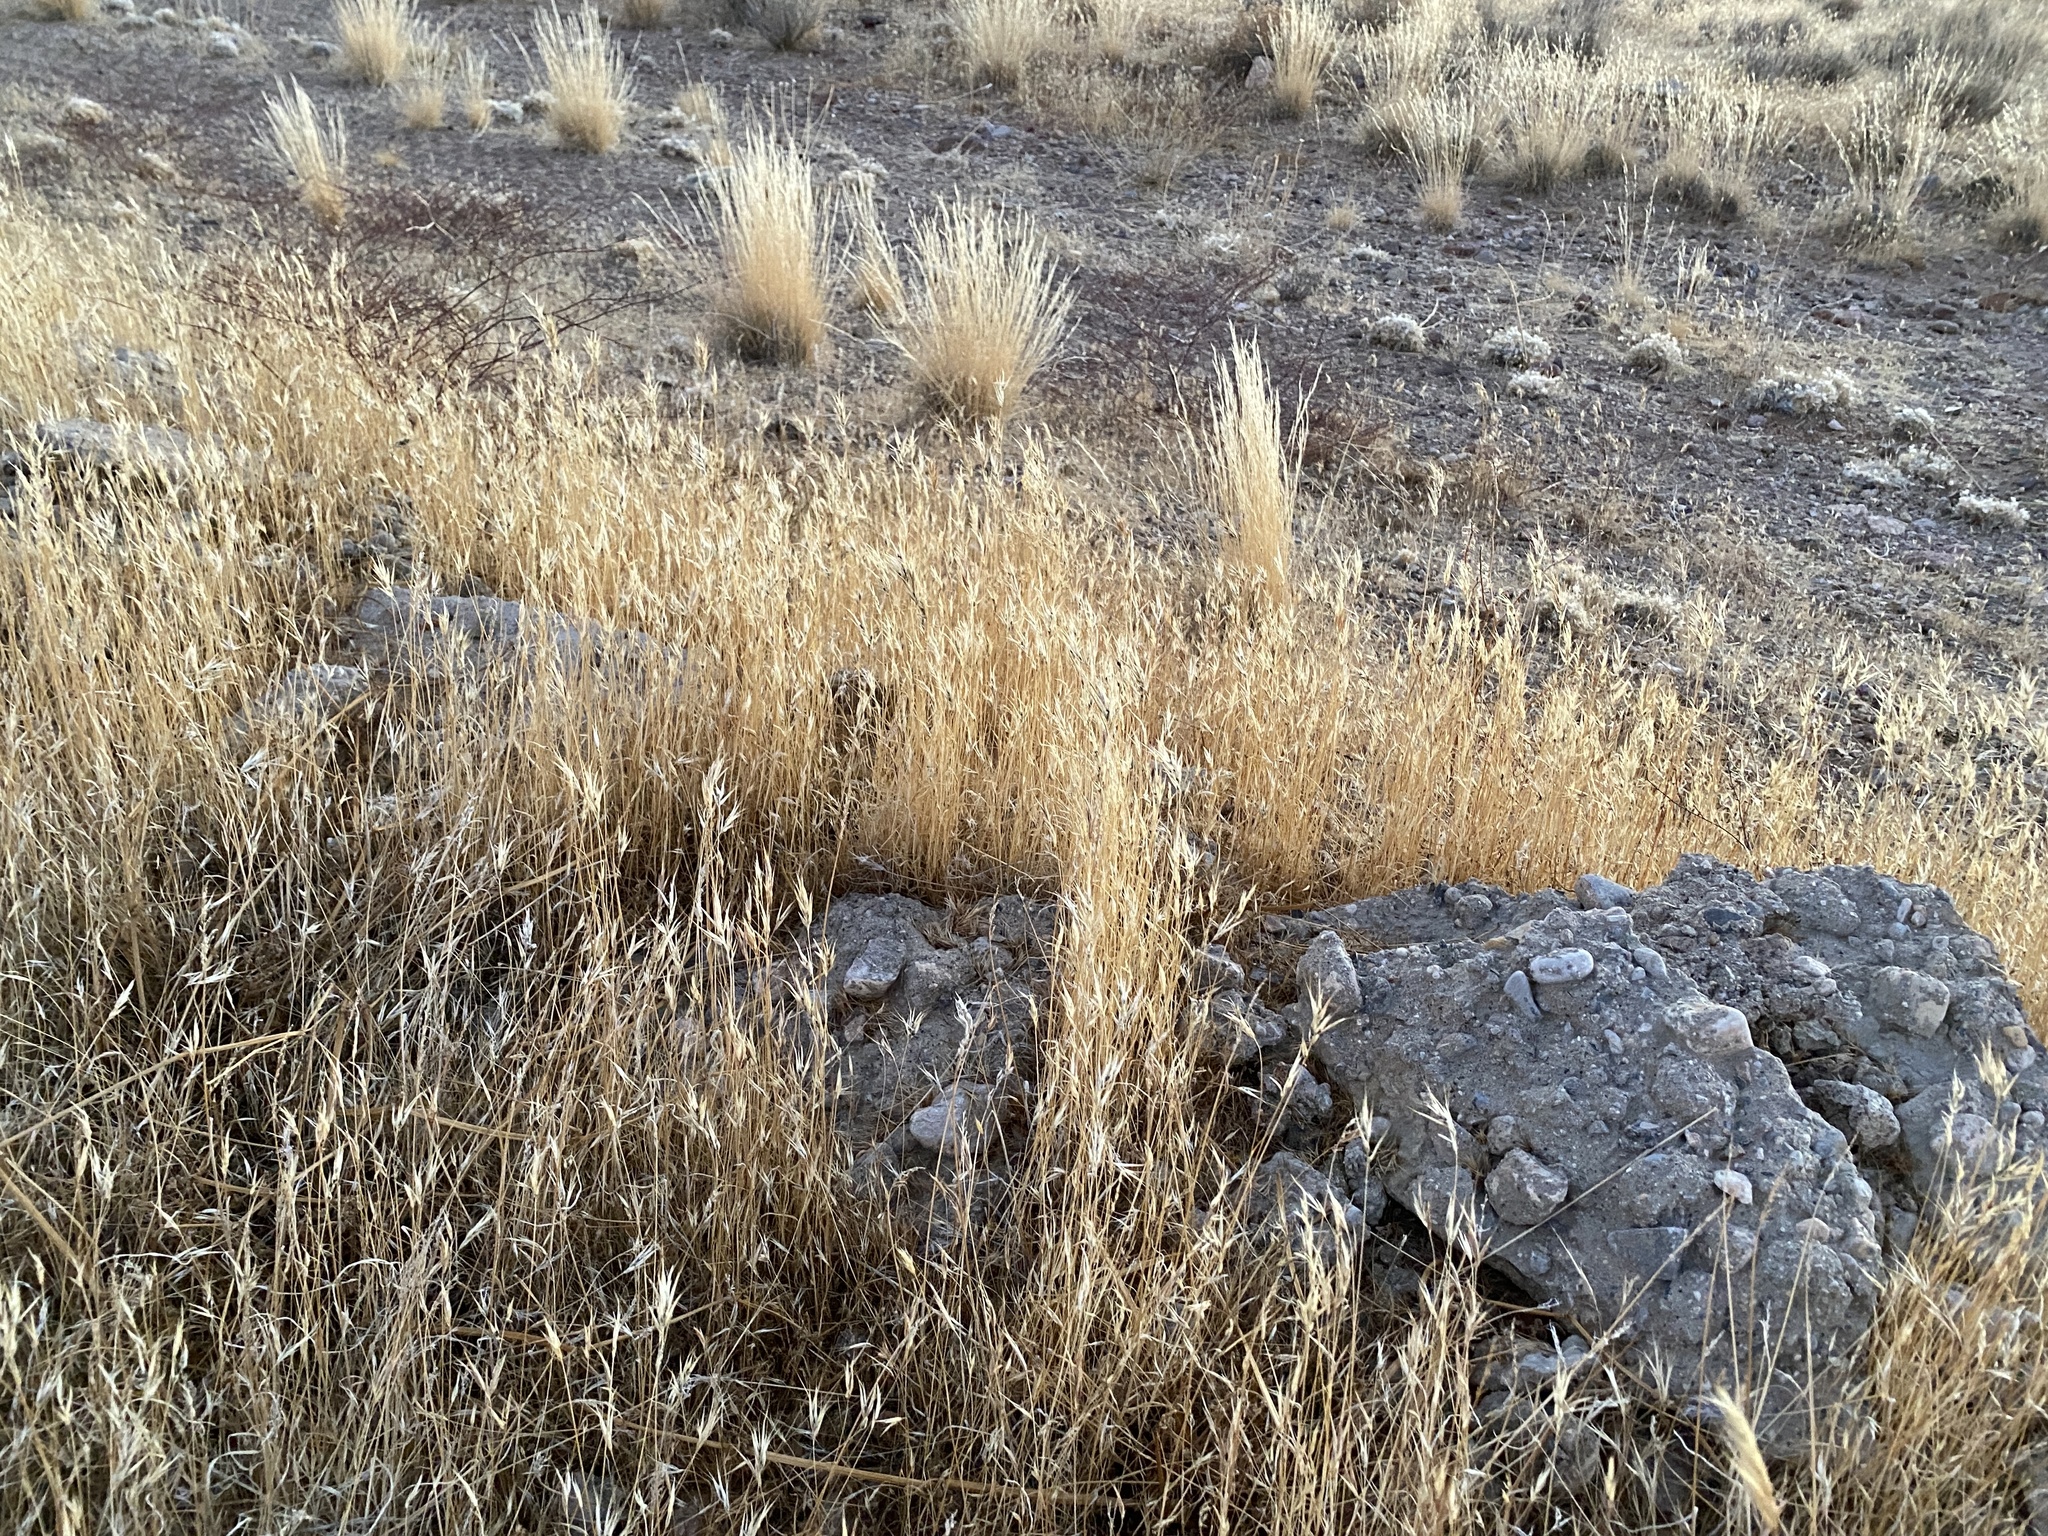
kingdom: Plantae
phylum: Tracheophyta
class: Liliopsida
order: Poales
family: Poaceae
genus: Bromus
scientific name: Bromus rubens
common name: Red brome
